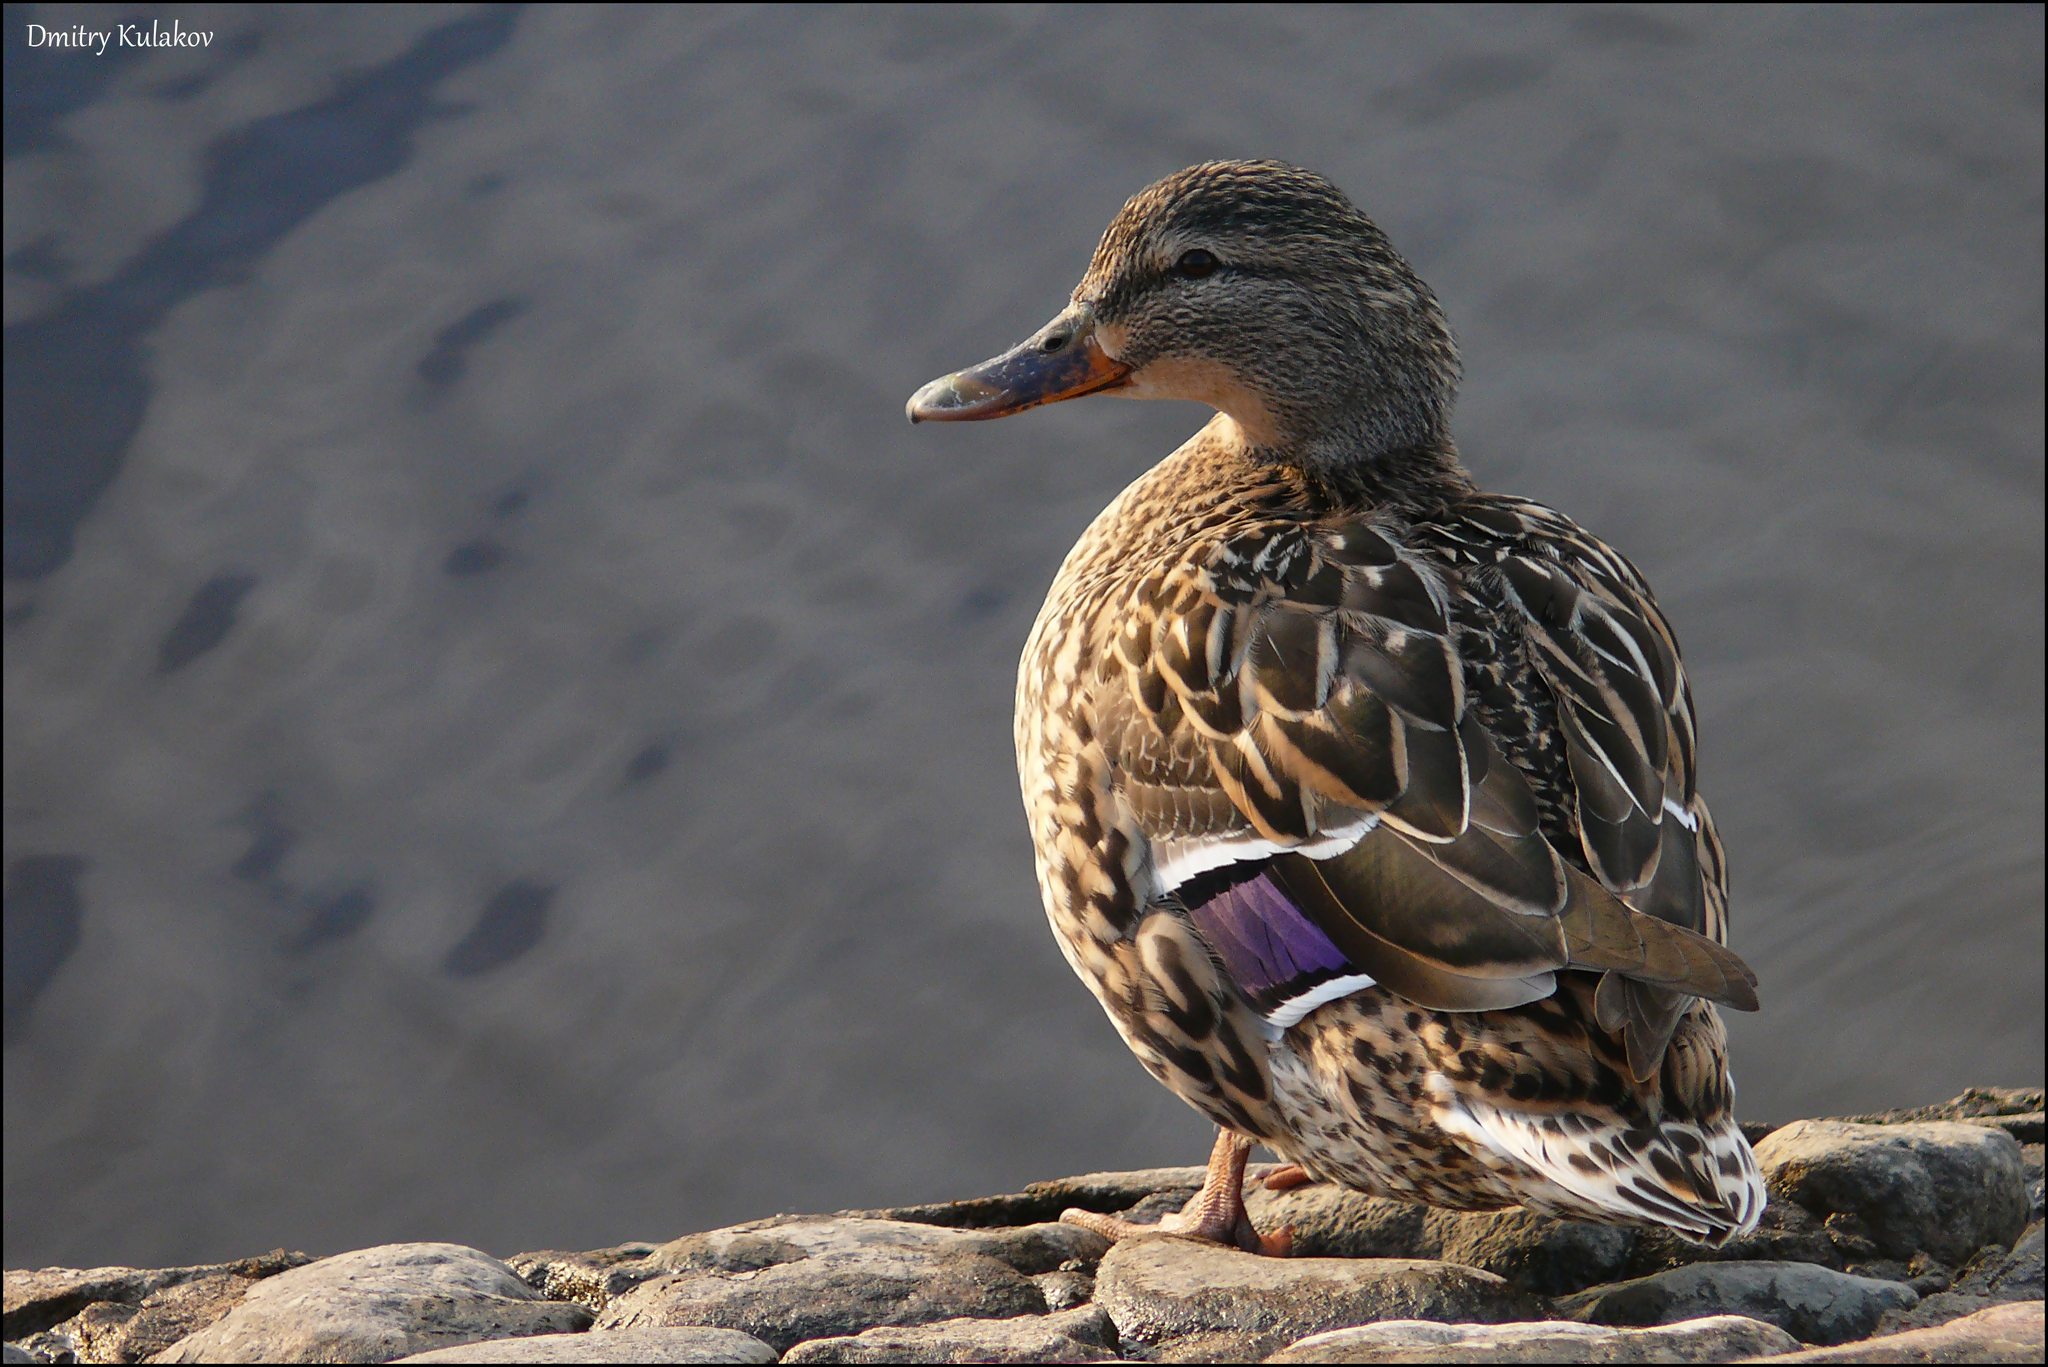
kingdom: Animalia
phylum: Chordata
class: Aves
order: Anseriformes
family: Anatidae
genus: Anas
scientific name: Anas platyrhynchos
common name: Mallard
